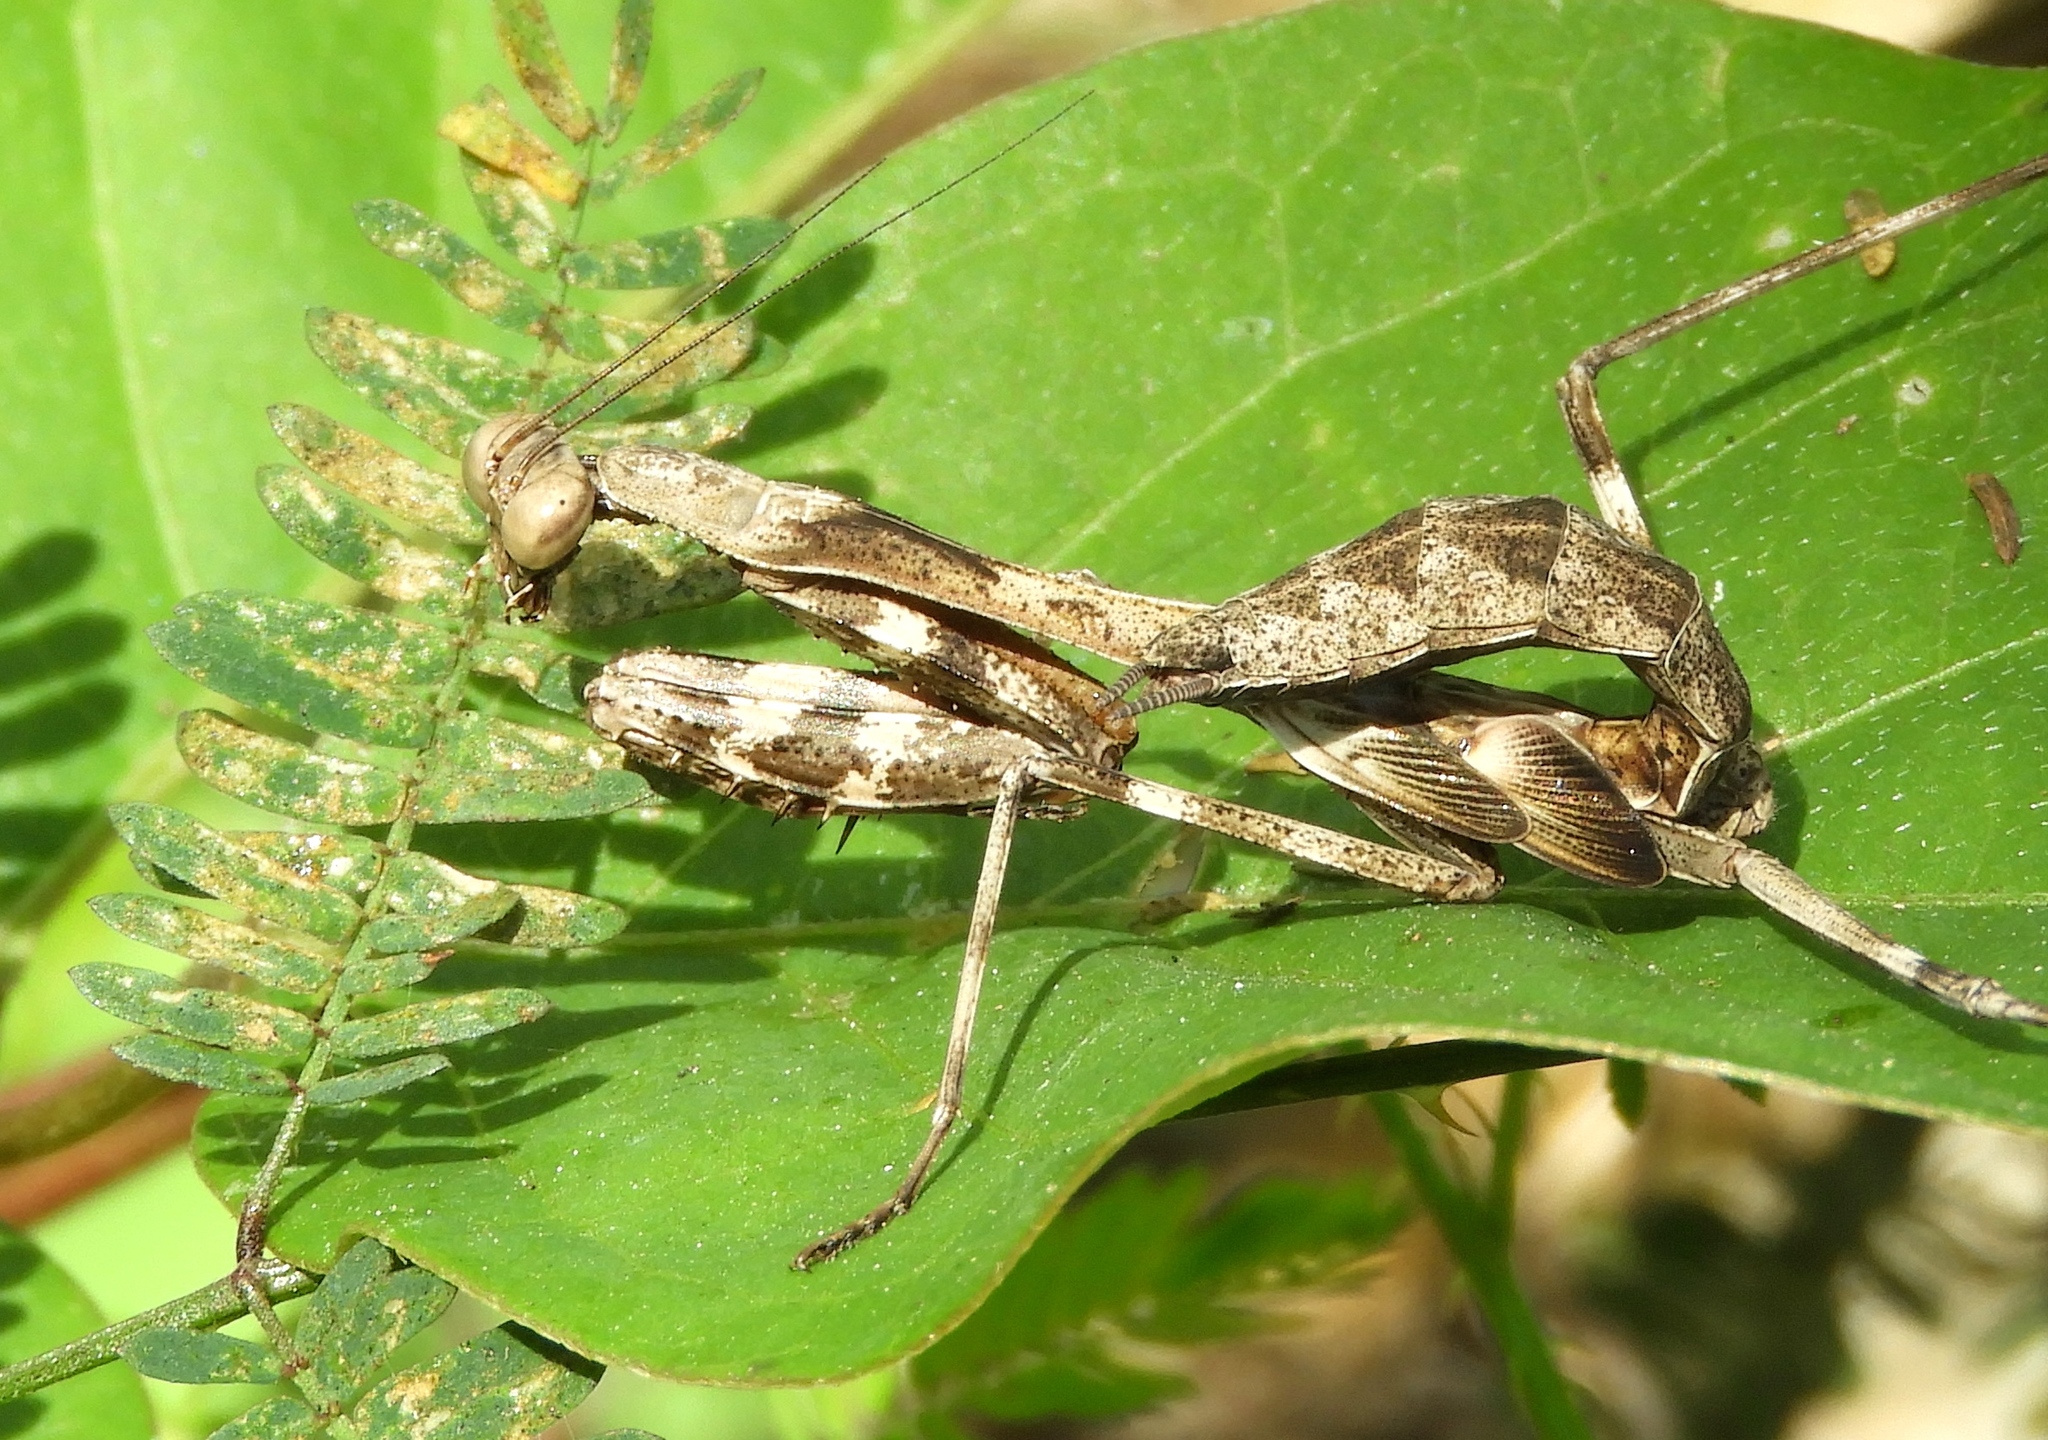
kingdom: Animalia
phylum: Arthropoda
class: Insecta
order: Mantodea
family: Mantidae
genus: Stagmomantis
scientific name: Stagmomantis
